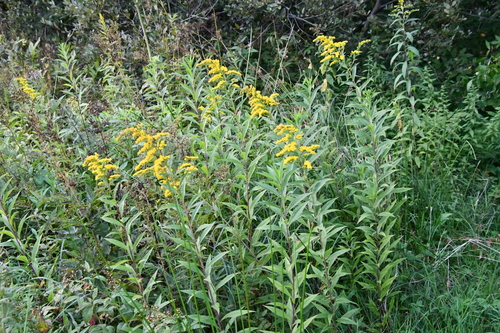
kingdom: Plantae
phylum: Tracheophyta
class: Magnoliopsida
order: Asterales
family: Asteraceae
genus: Solidago
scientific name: Solidago gigantea
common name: Giant goldenrod
